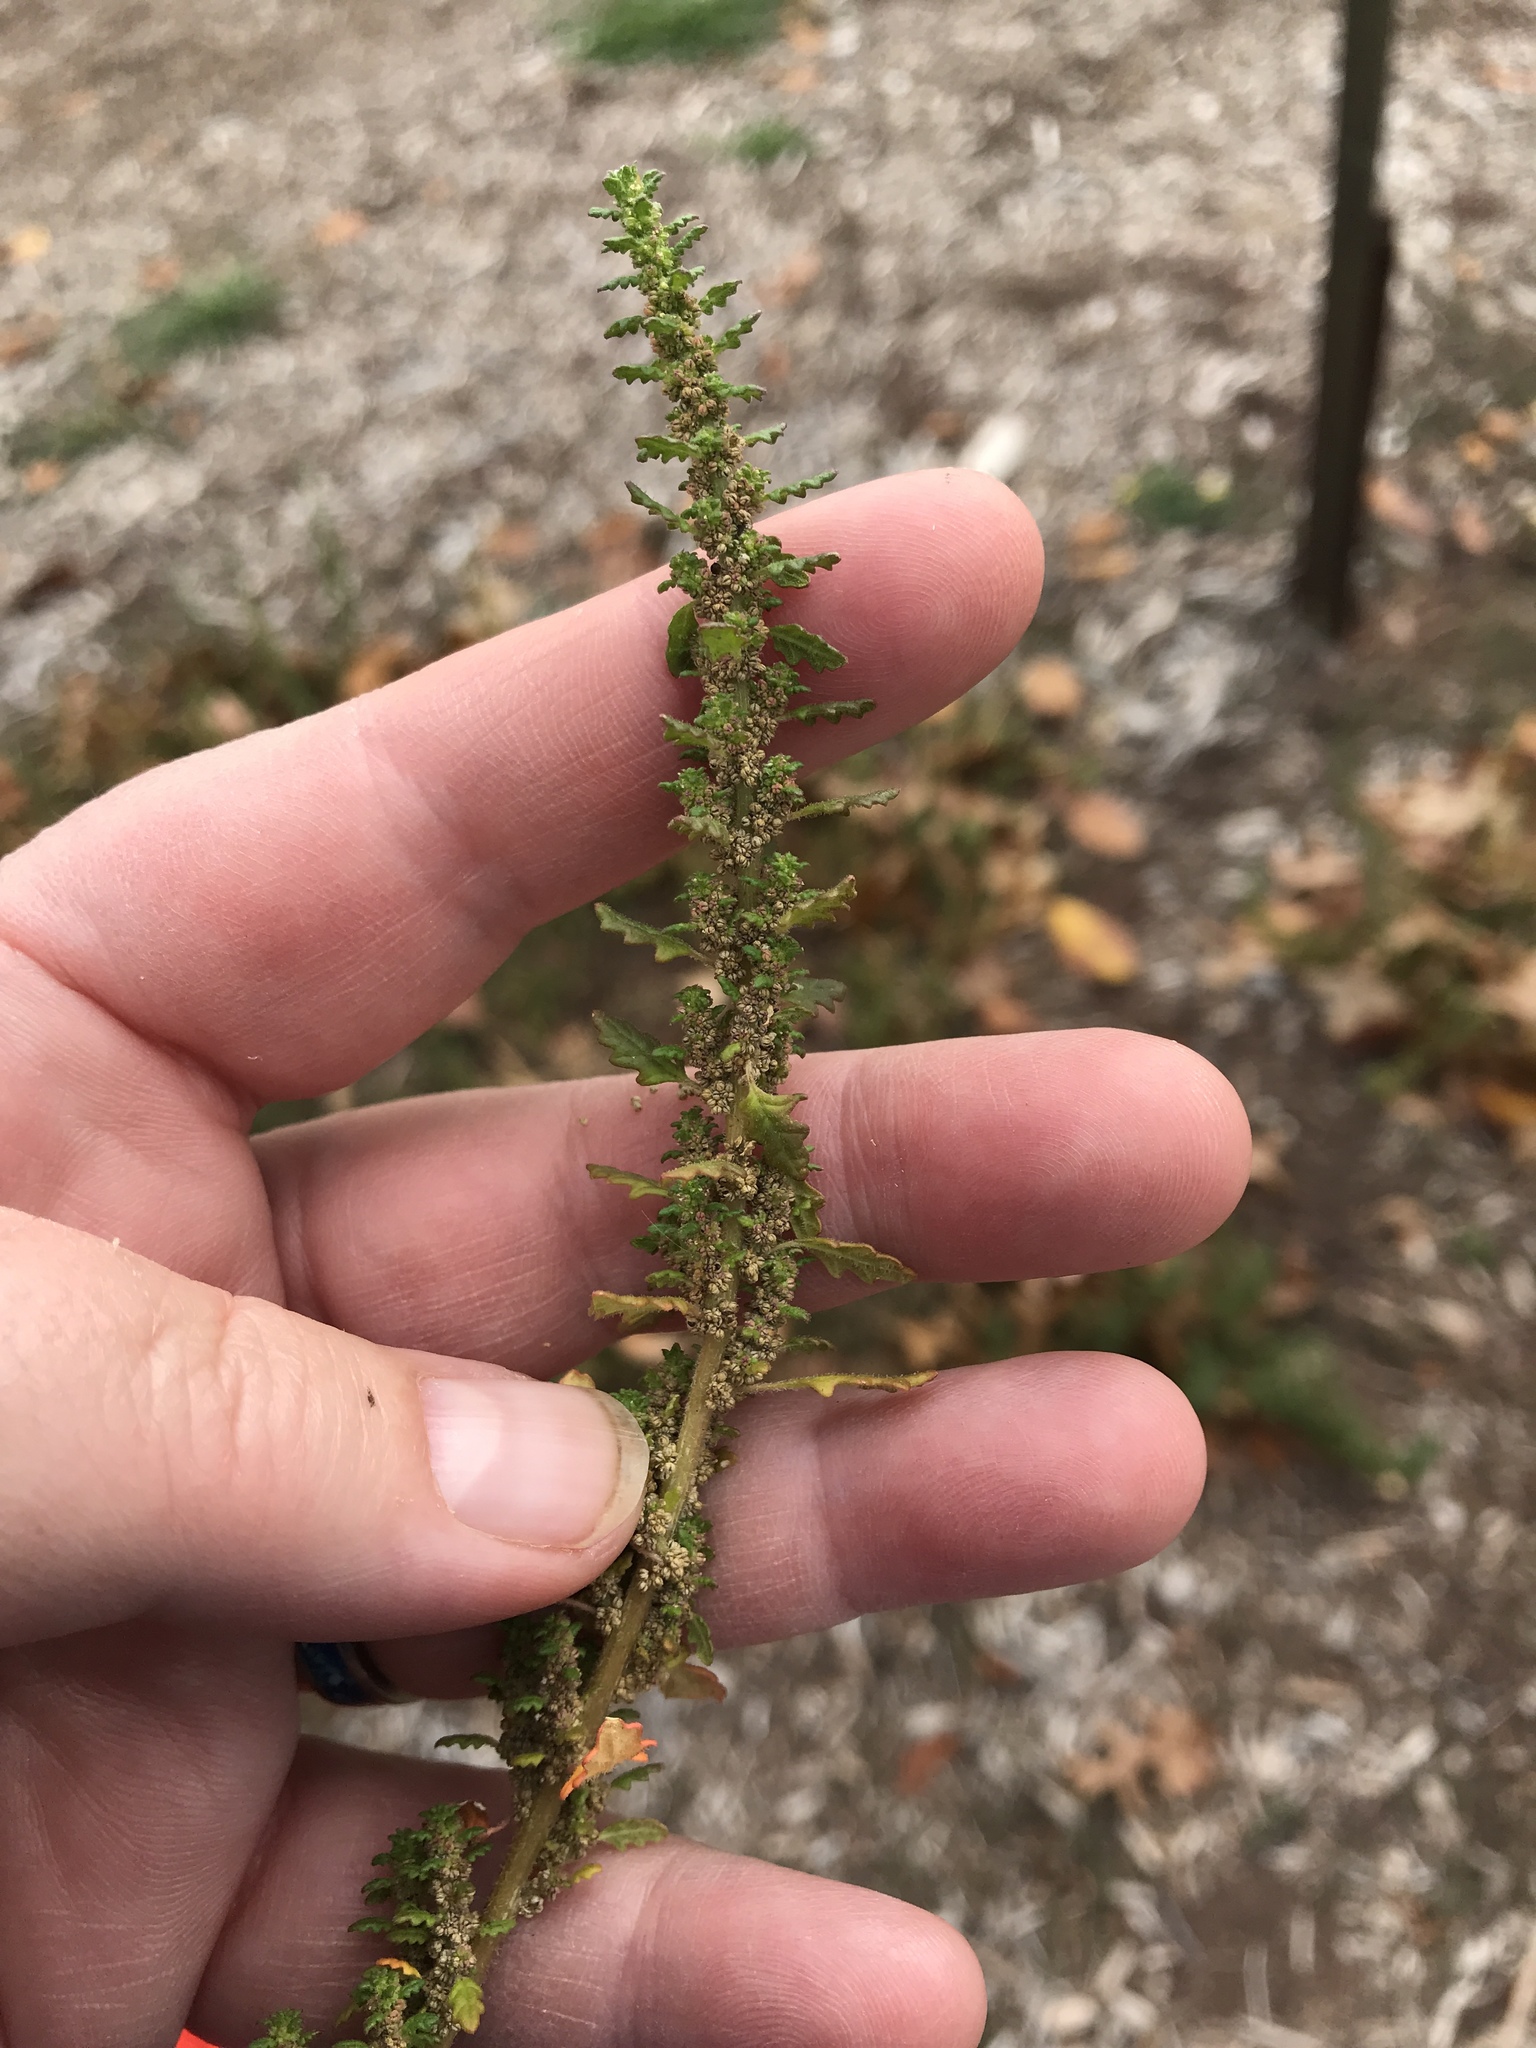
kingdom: Plantae
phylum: Tracheophyta
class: Magnoliopsida
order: Caryophyllales
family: Amaranthaceae
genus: Dysphania
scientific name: Dysphania pumilio
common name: Clammy goosefoot
